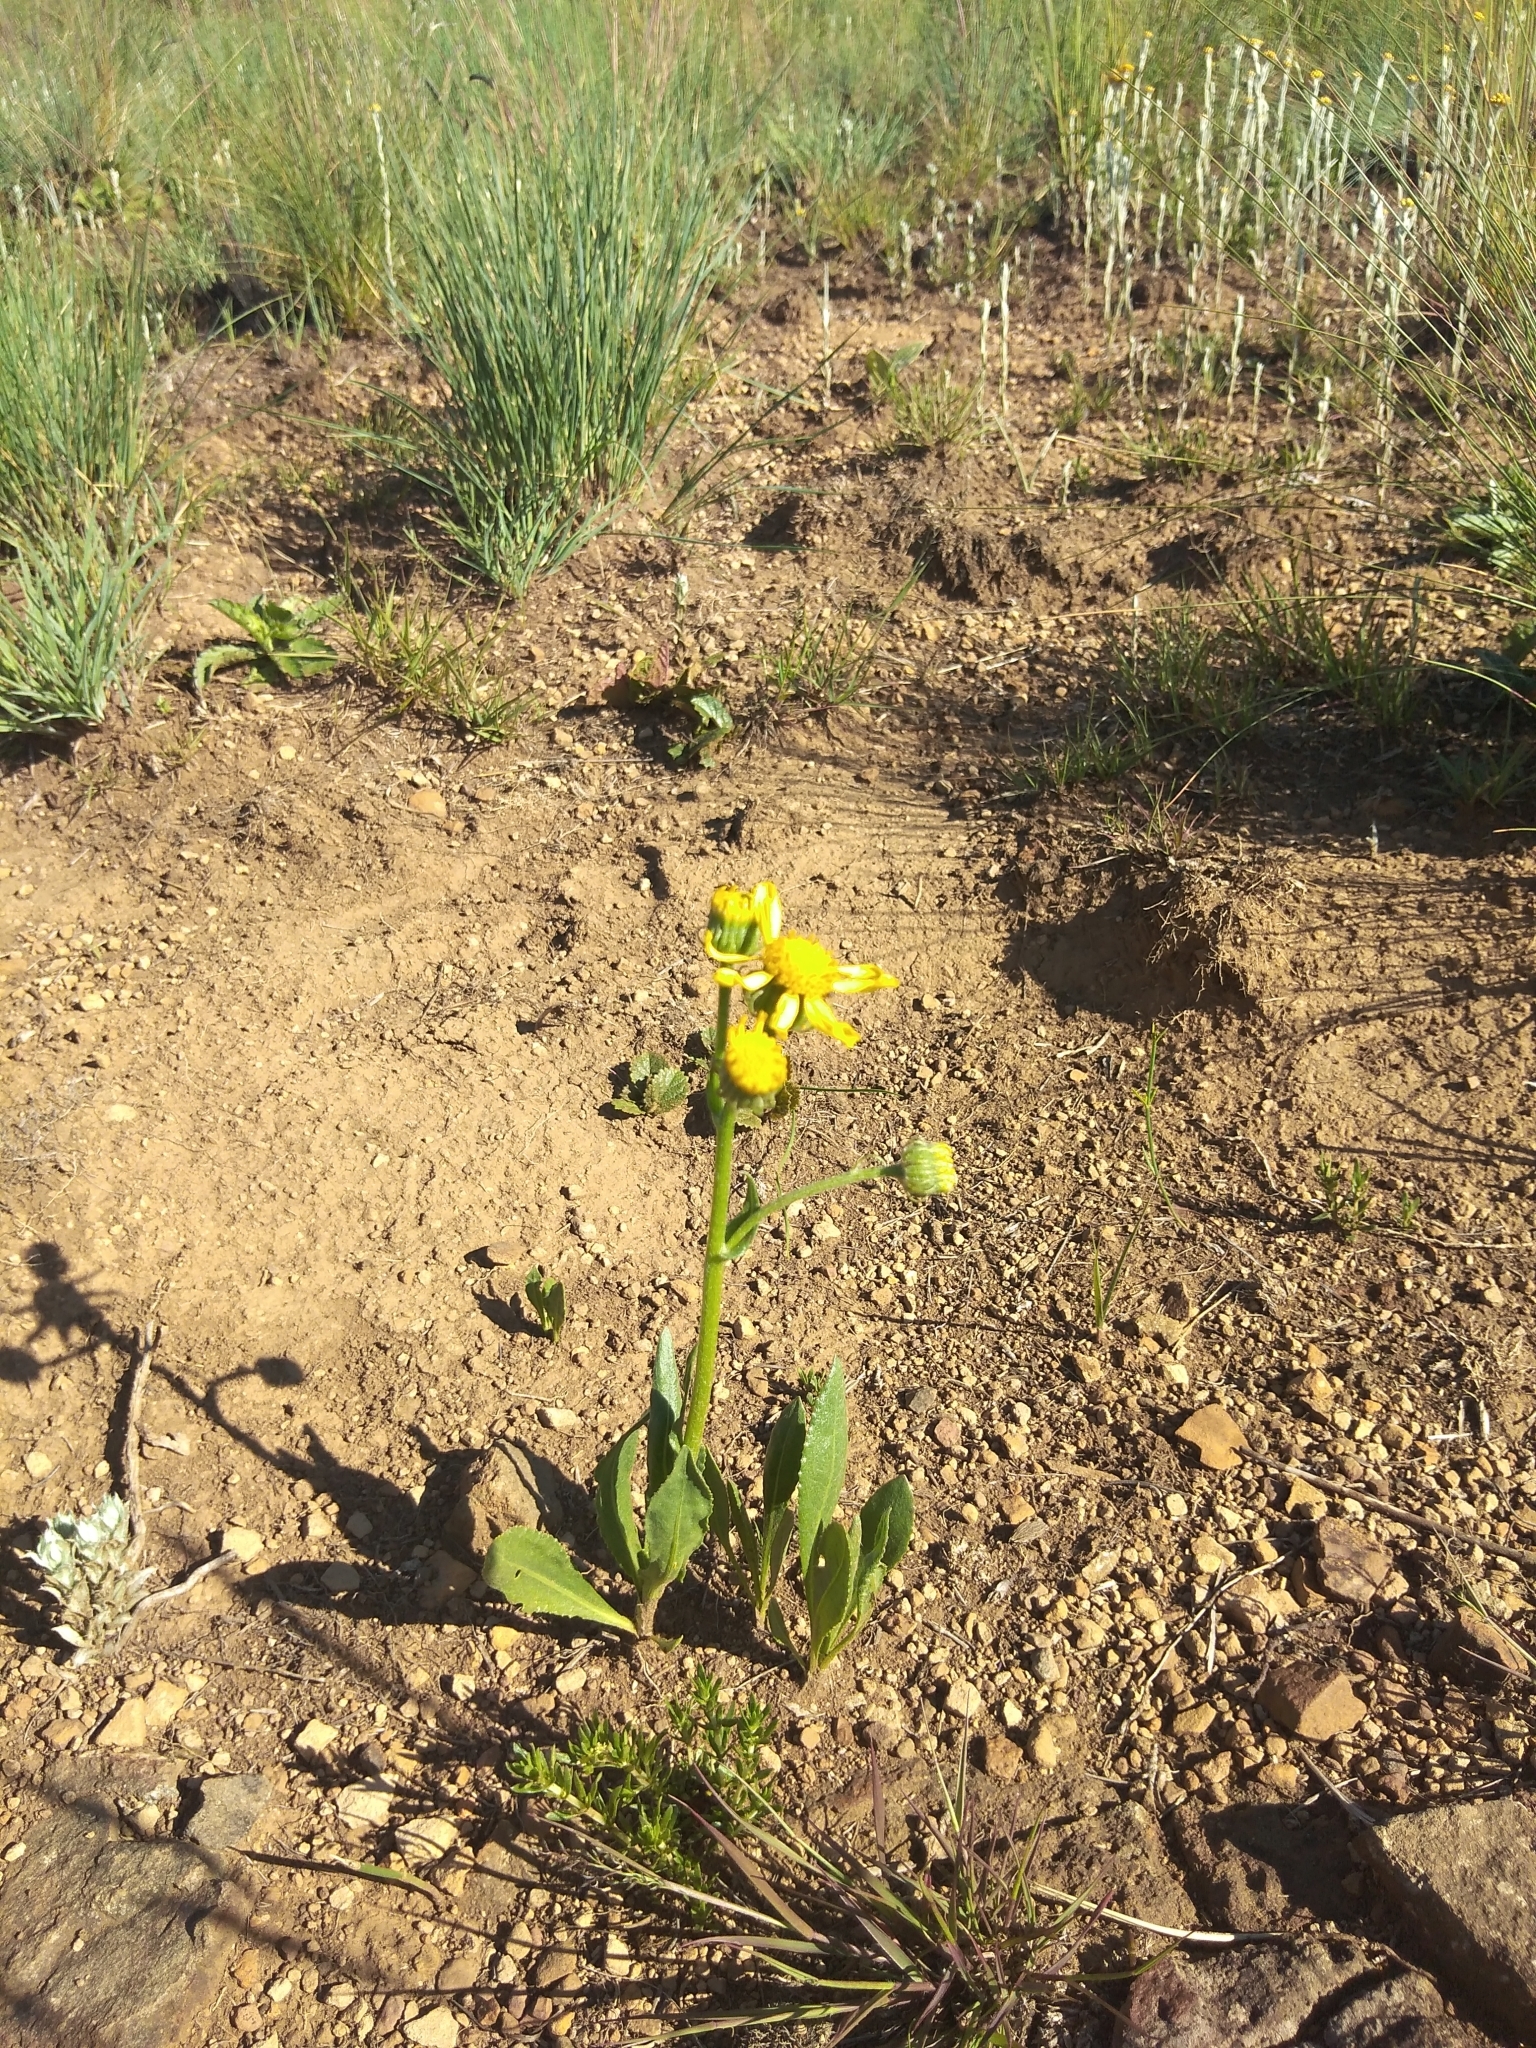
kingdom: Plantae
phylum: Tracheophyta
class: Magnoliopsida
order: Asterales
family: Asteraceae
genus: Senecio
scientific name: Senecio coronatus
